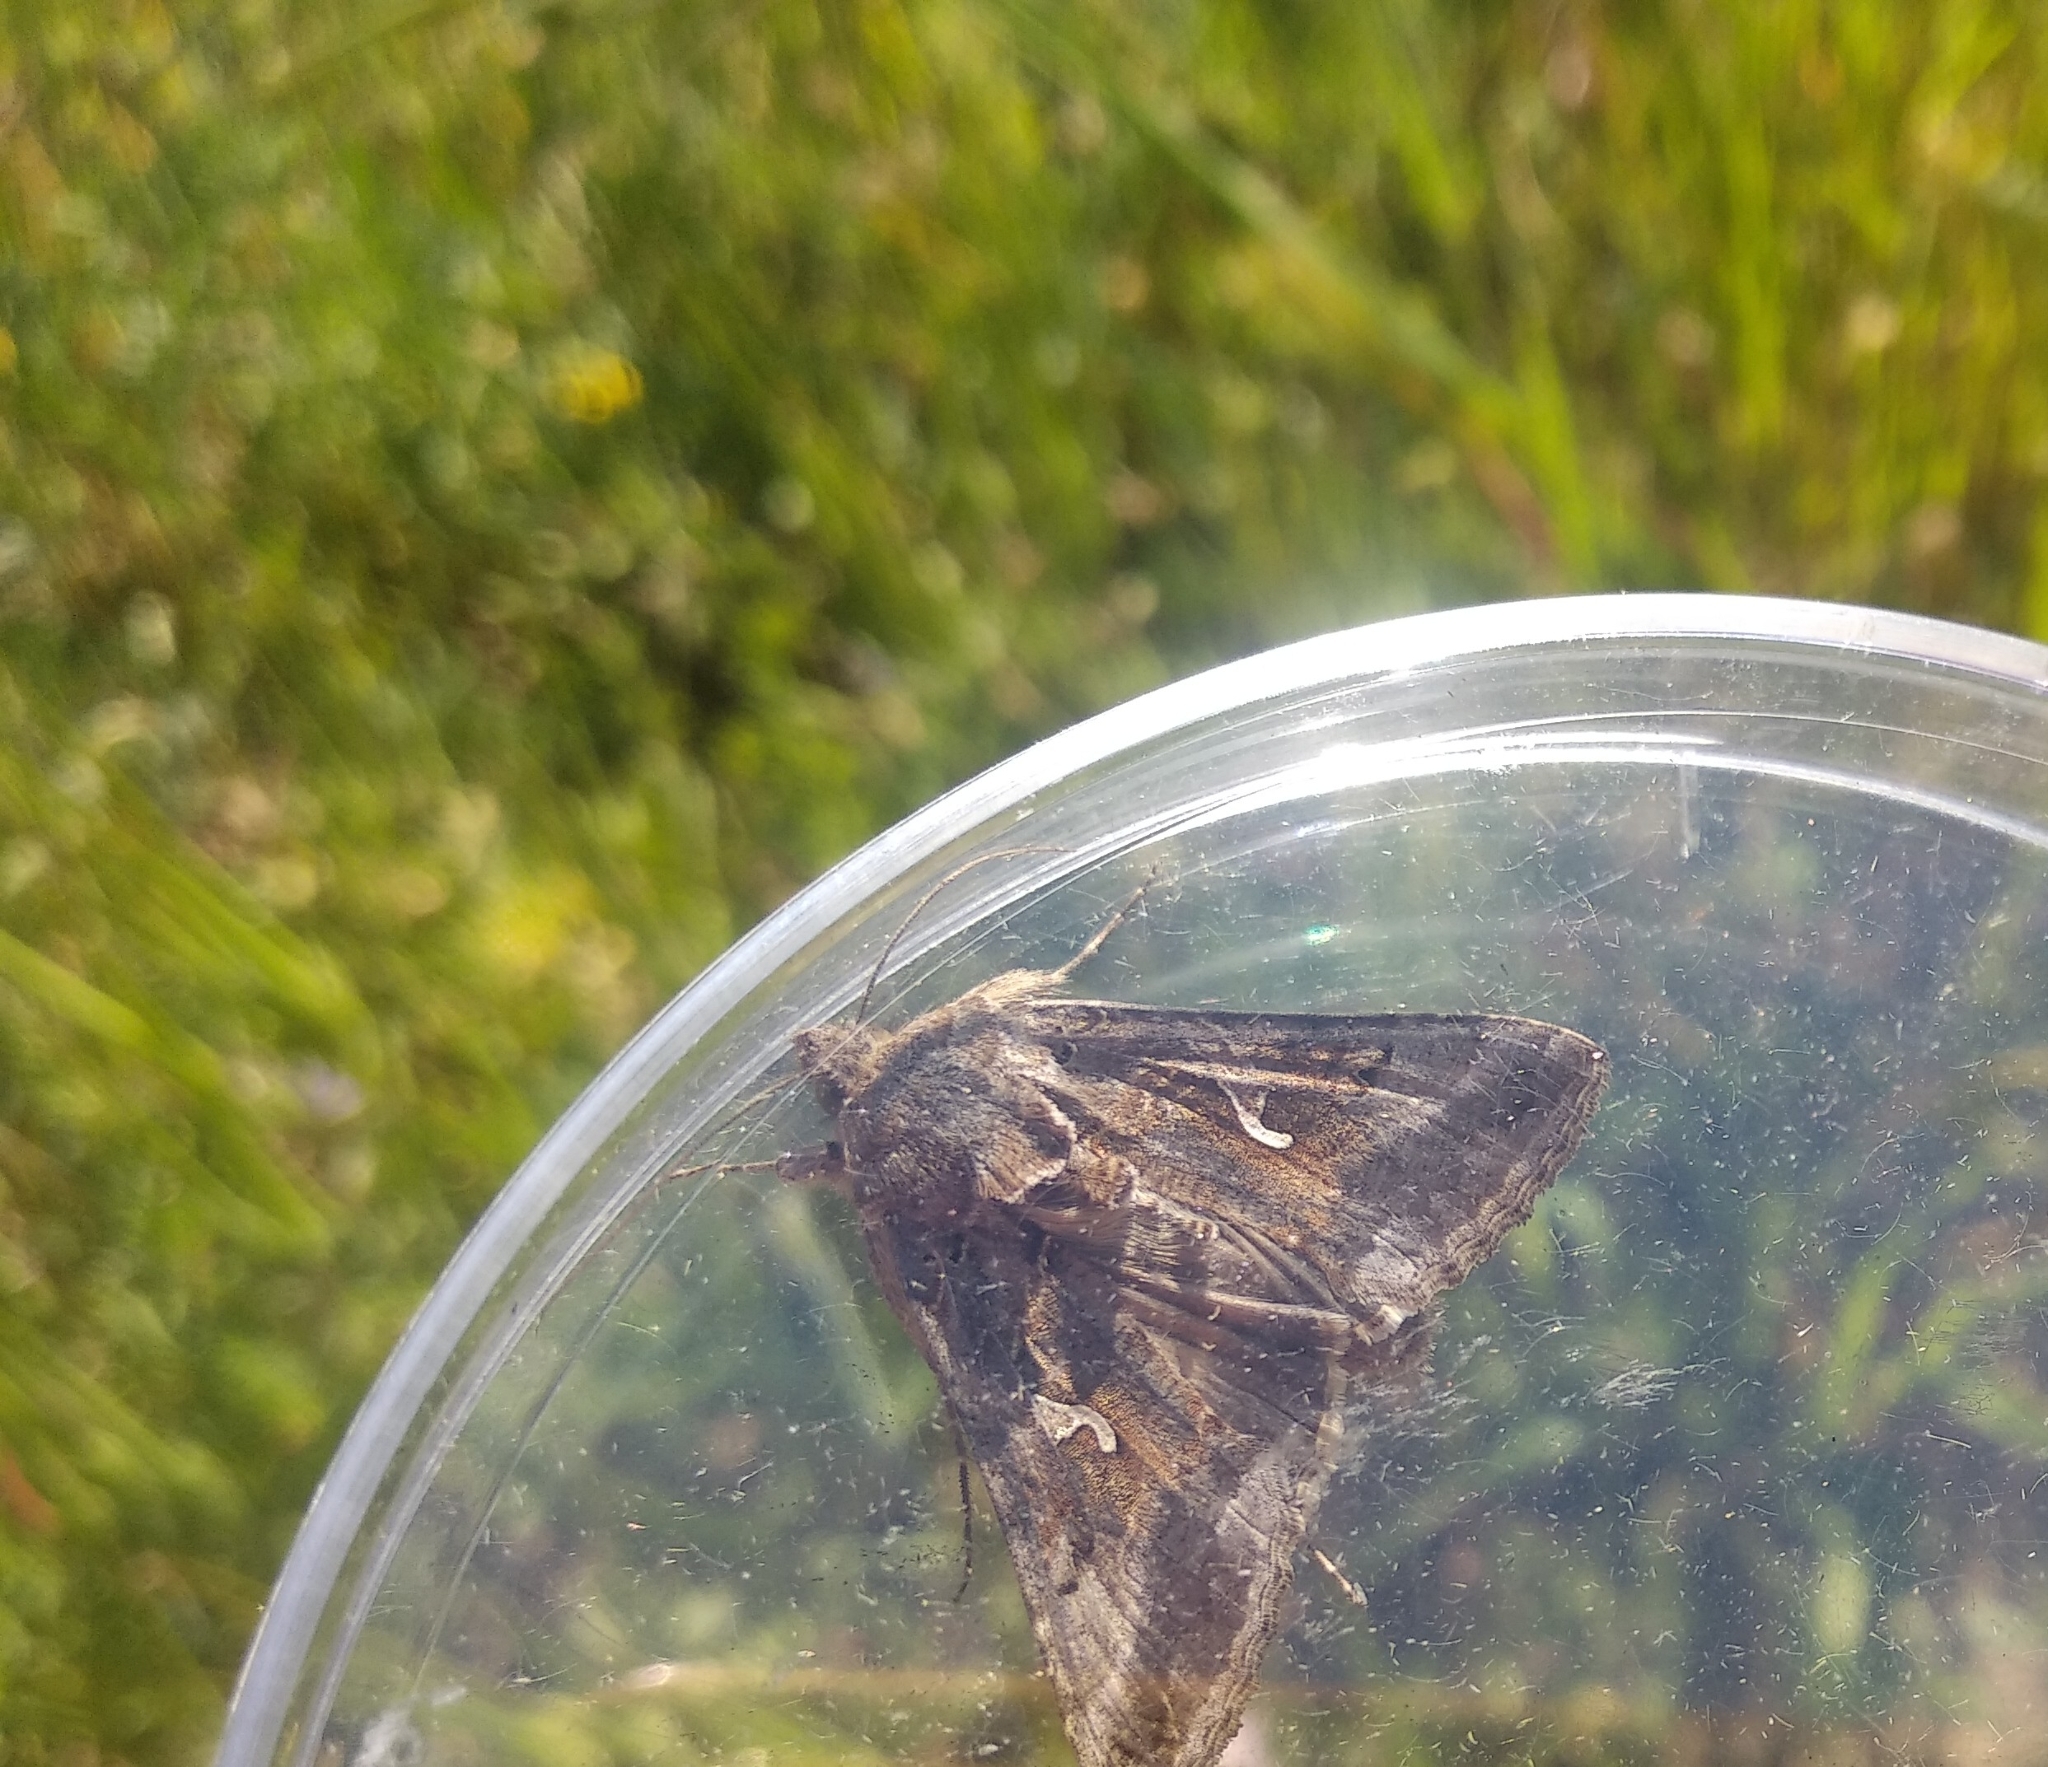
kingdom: Animalia
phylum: Arthropoda
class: Insecta
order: Lepidoptera
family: Noctuidae
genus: Autographa
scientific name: Autographa gamma
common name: Silver y
